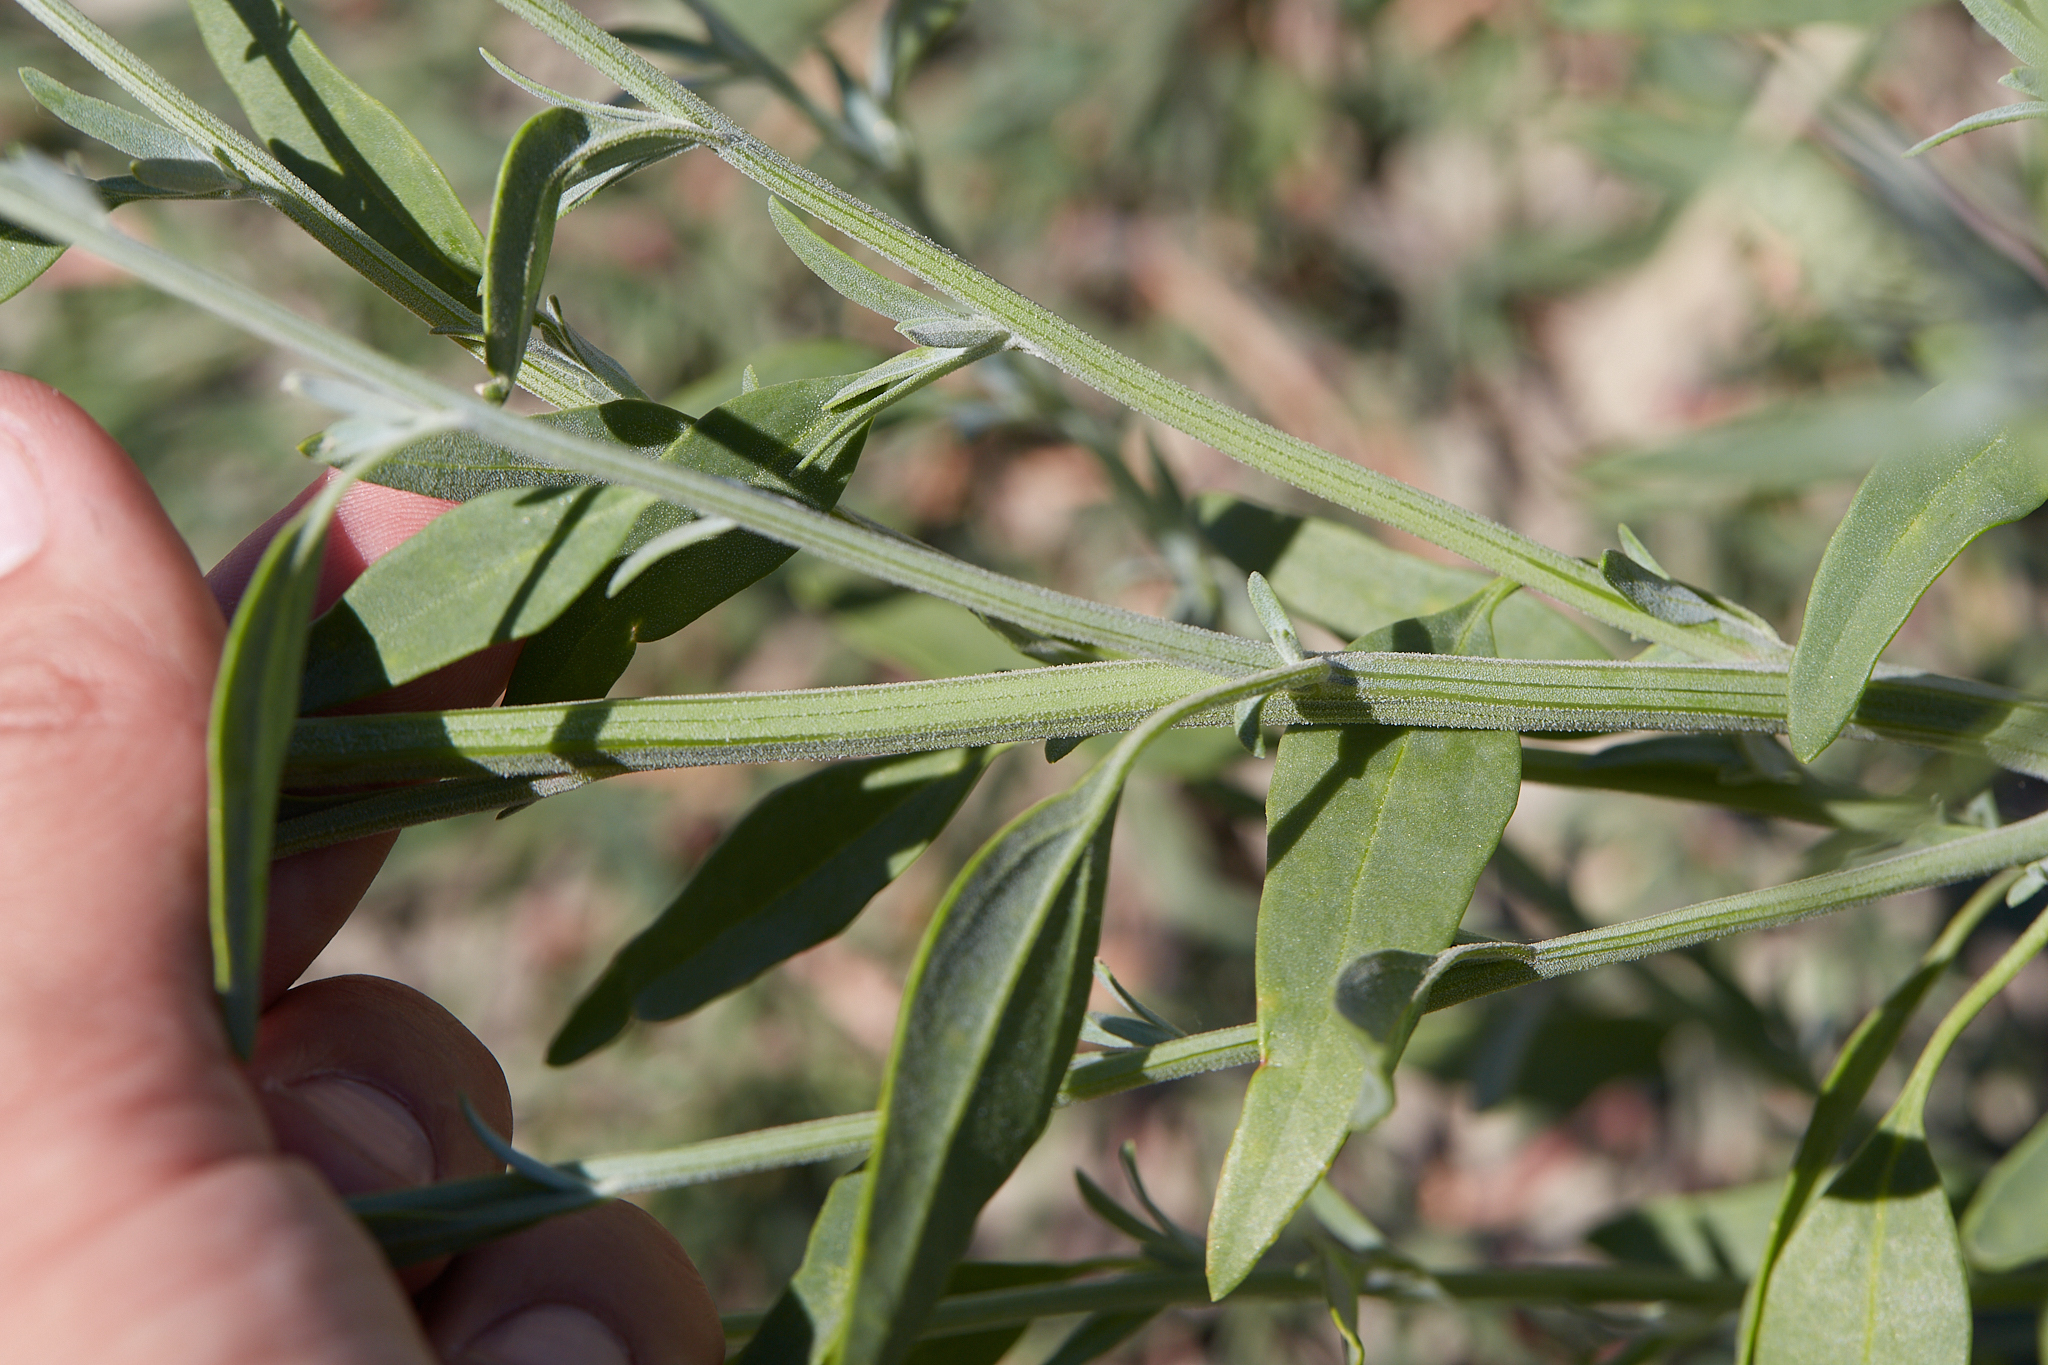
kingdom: Plantae
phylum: Tracheophyta
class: Magnoliopsida
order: Caryophyllales
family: Amaranthaceae
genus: Chenopodium
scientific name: Chenopodium pratericola
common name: Desert goosefoot
